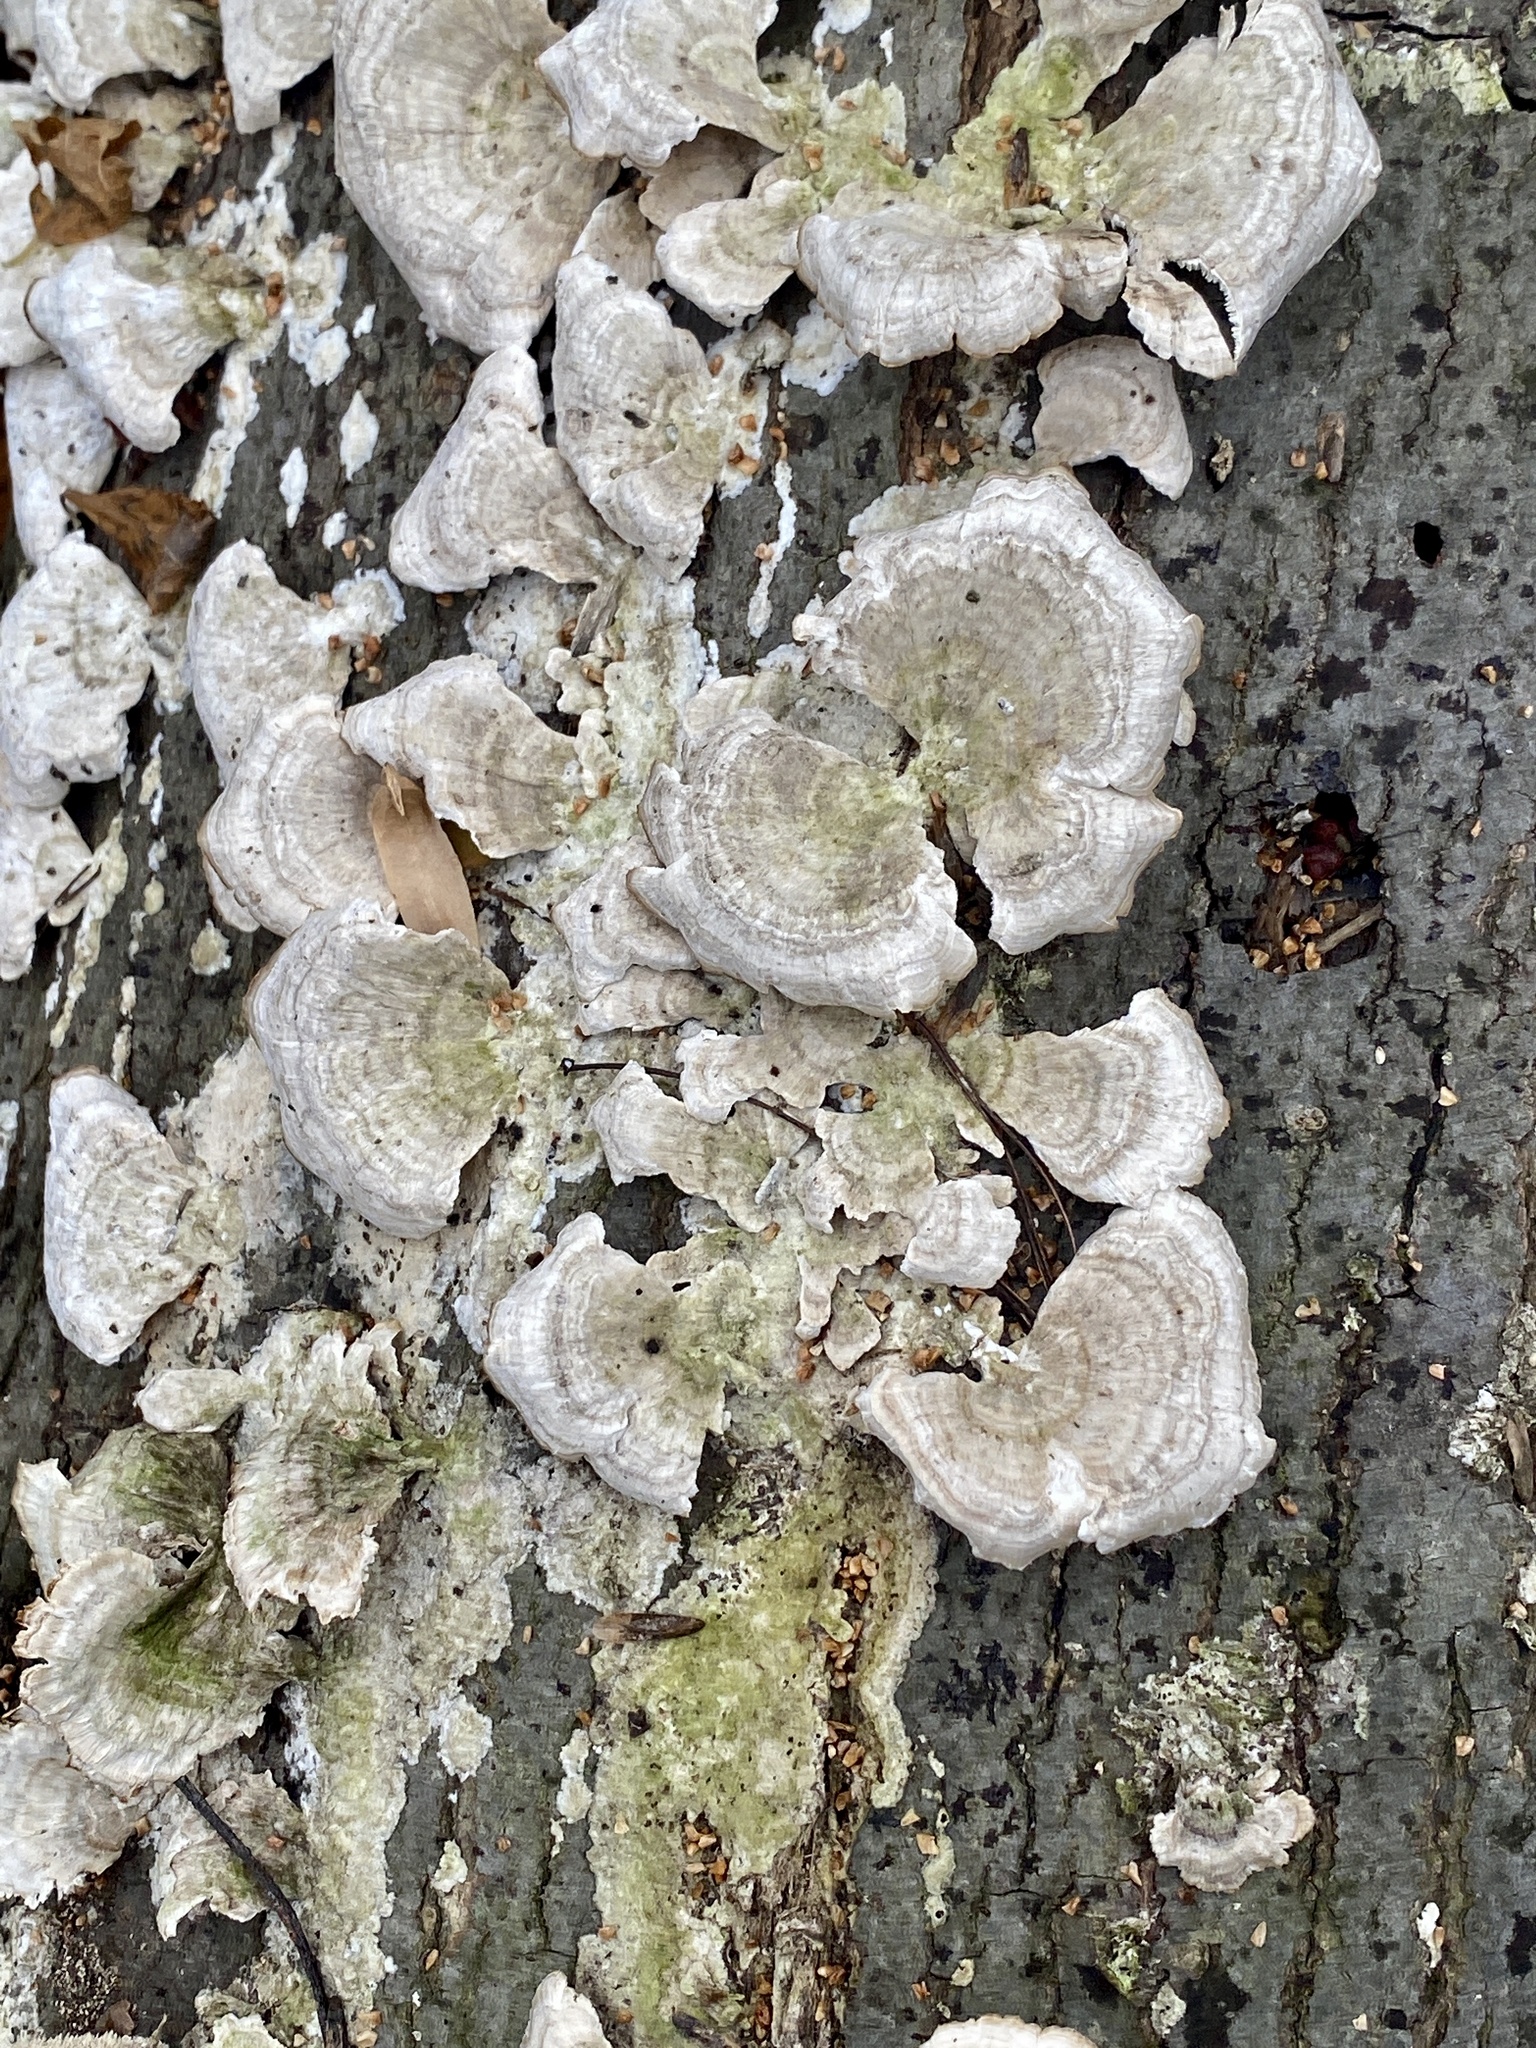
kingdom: Fungi
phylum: Basidiomycota
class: Agaricomycetes
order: Hymenochaetales
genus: Trichaptum
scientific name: Trichaptum biforme
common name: Violet-toothed polypore
